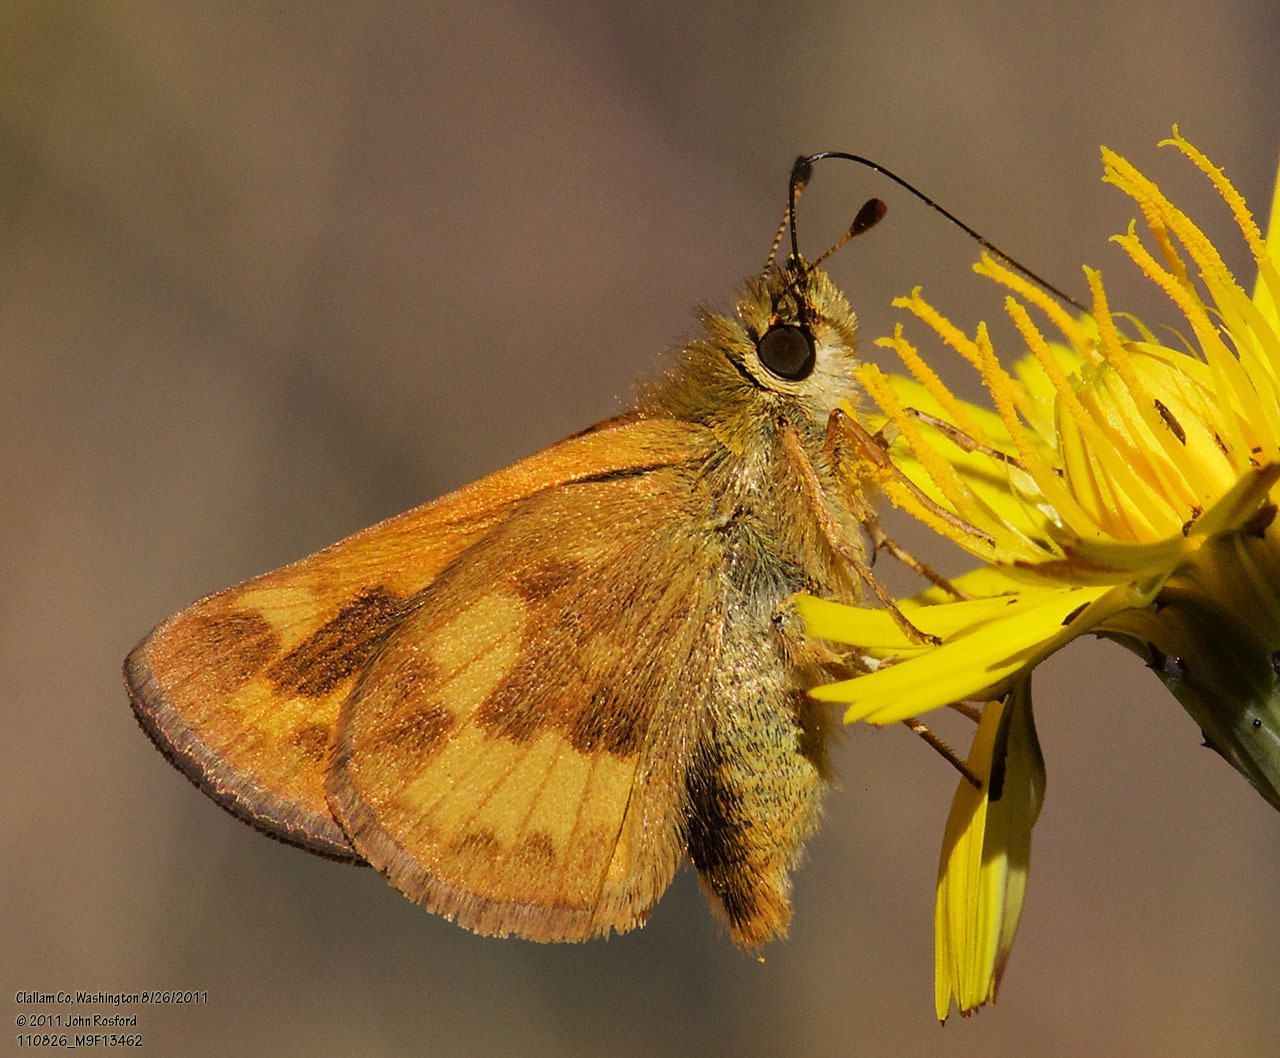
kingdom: Animalia
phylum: Arthropoda
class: Insecta
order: Lepidoptera
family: Hesperiidae
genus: Ochlodes
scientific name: Ochlodes sylvanoides
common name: Woodland skipper
